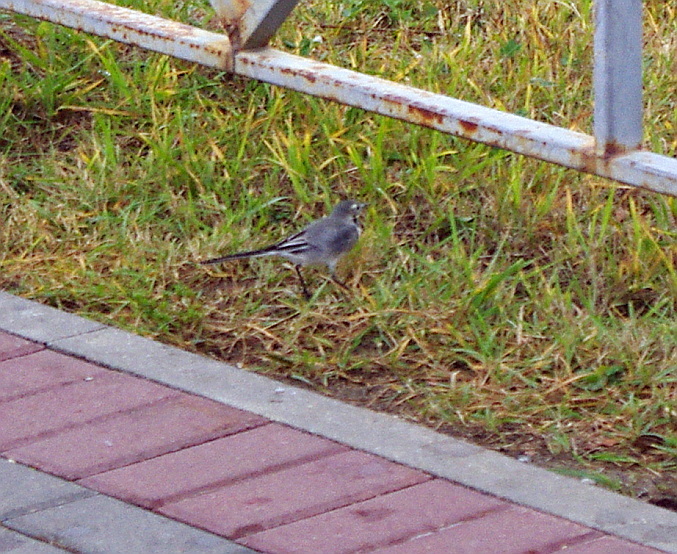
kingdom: Animalia
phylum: Chordata
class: Aves
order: Passeriformes
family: Motacillidae
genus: Motacilla
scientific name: Motacilla alba
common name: White wagtail
